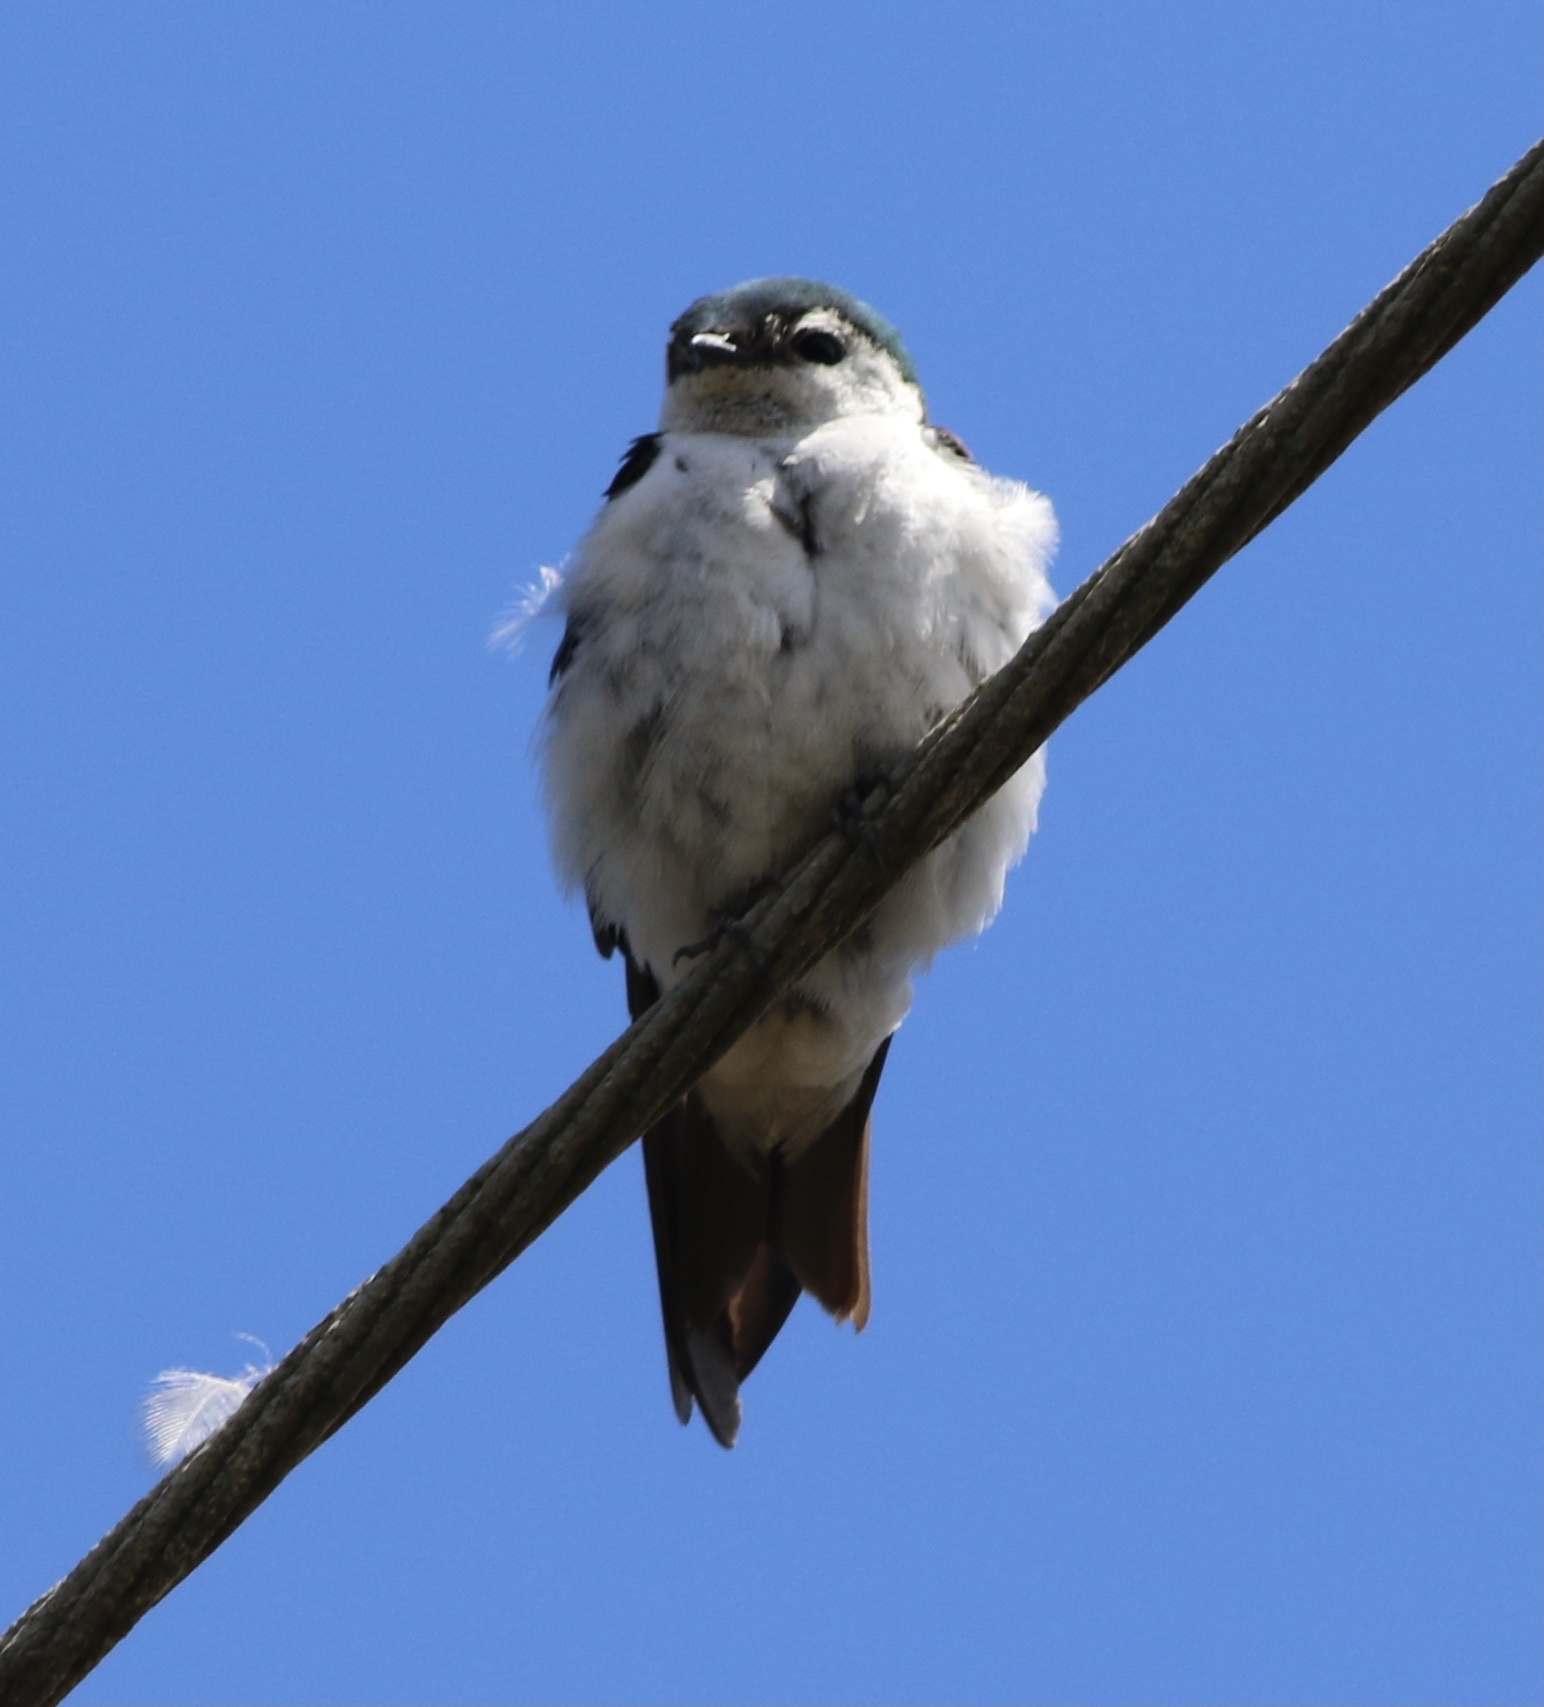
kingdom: Animalia
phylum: Chordata
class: Aves
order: Passeriformes
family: Hirundinidae
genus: Tachycineta
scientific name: Tachycineta thalassina
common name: Violet-green swallow
